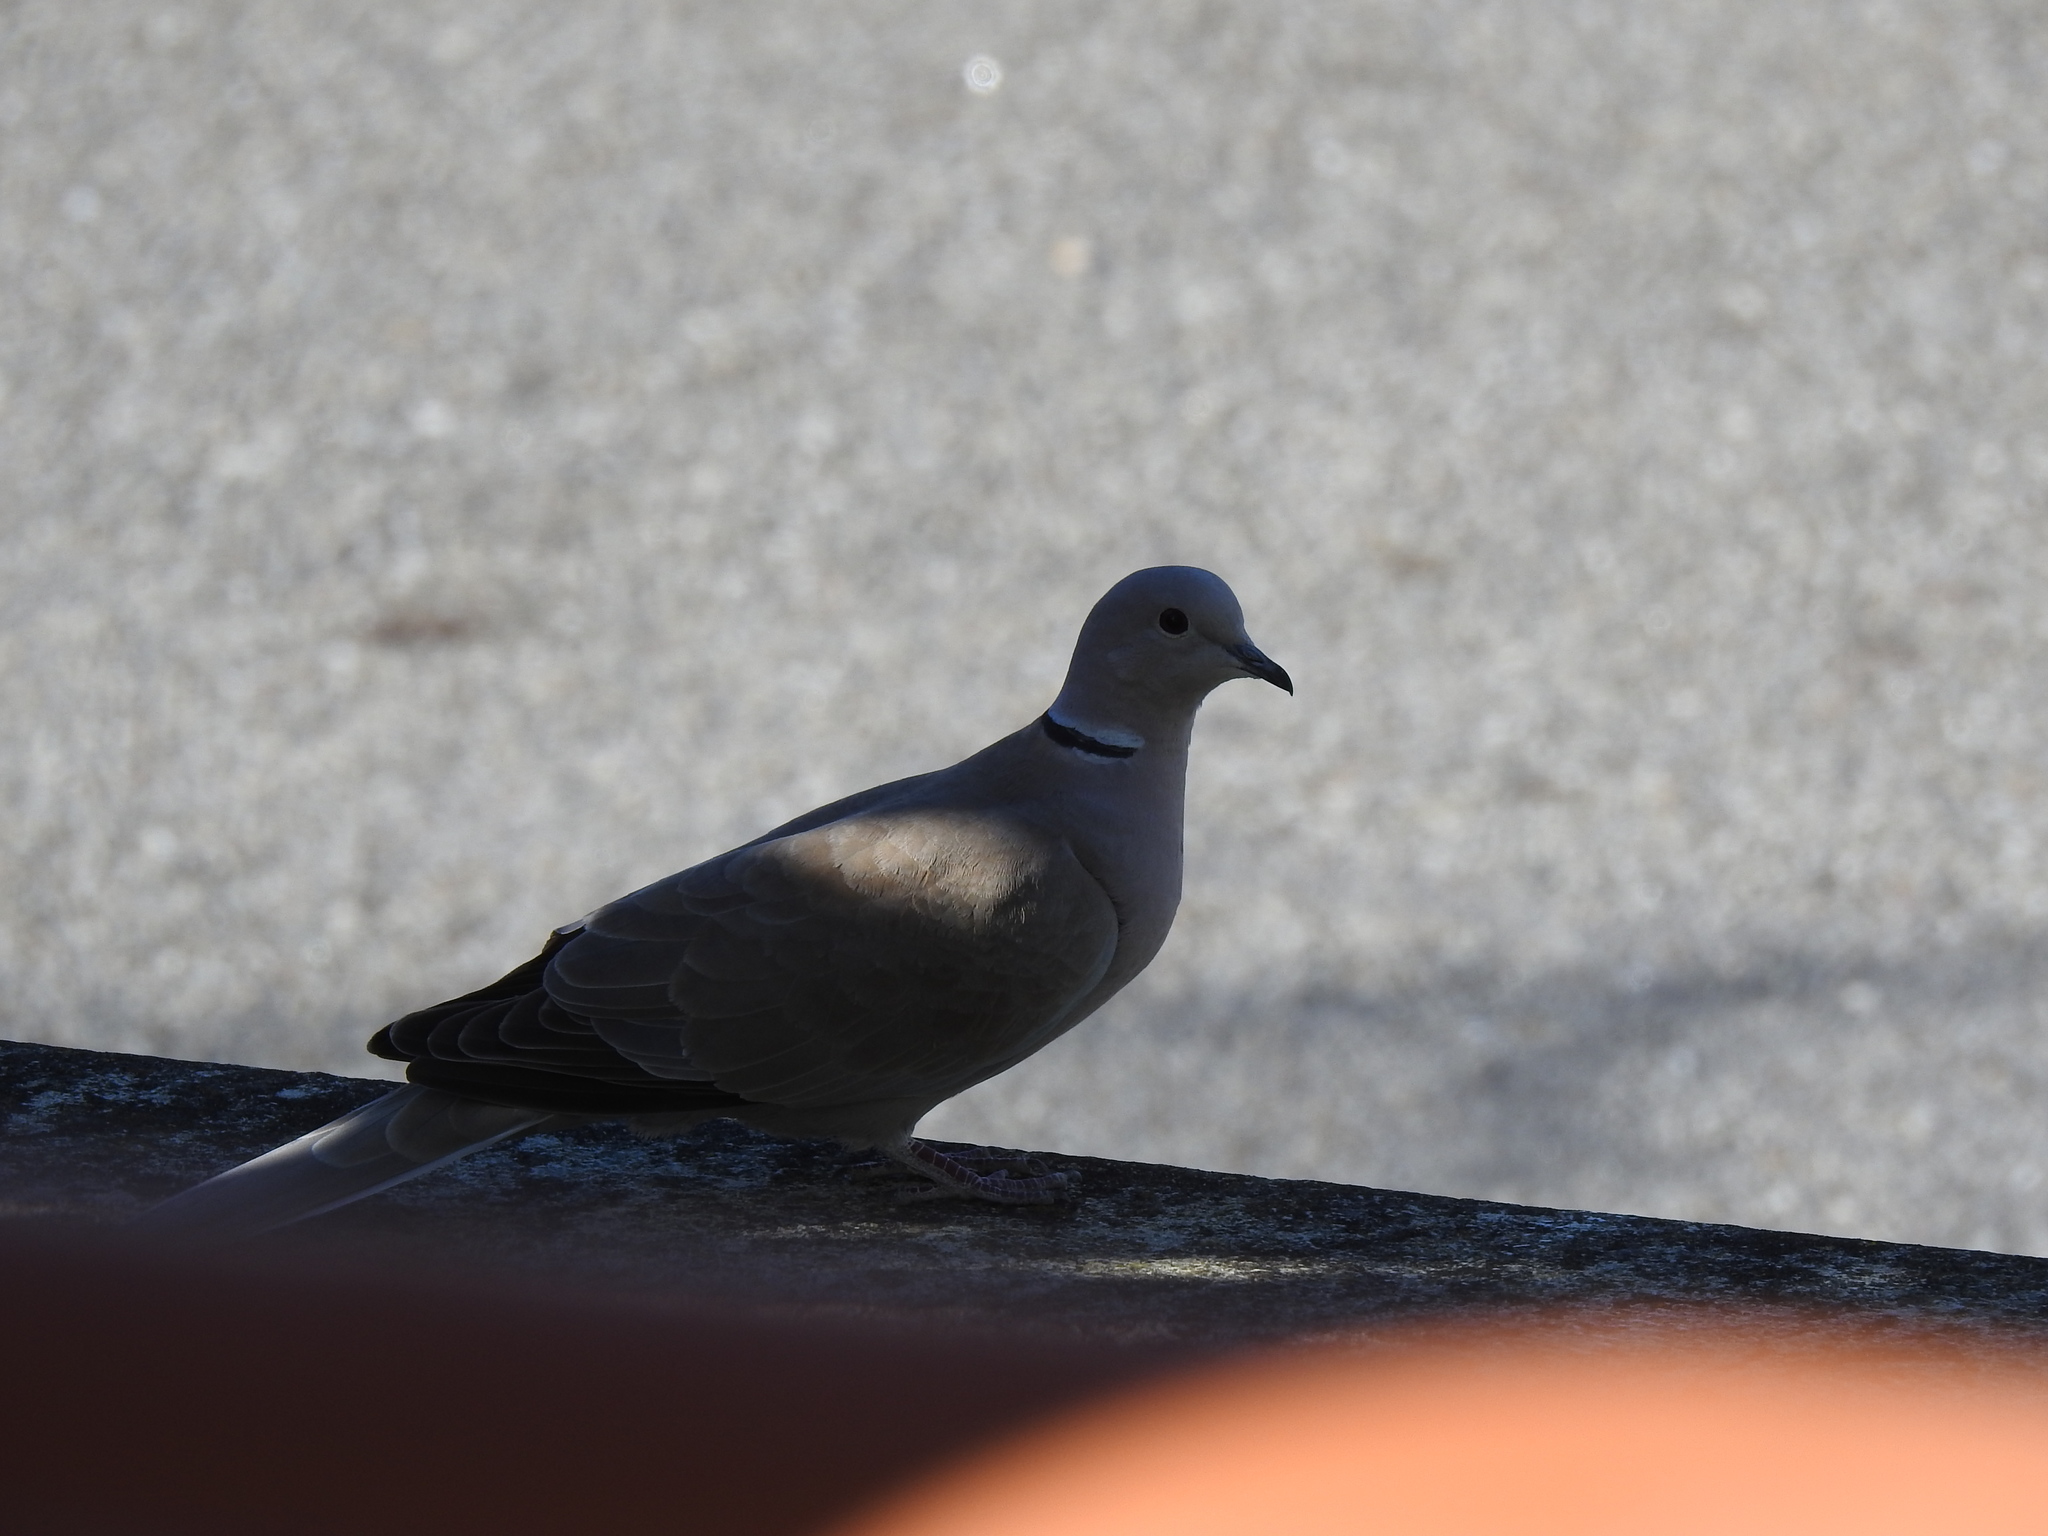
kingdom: Animalia
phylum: Chordata
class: Aves
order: Columbiformes
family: Columbidae
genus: Streptopelia
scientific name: Streptopelia decaocto
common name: Eurasian collared dove
